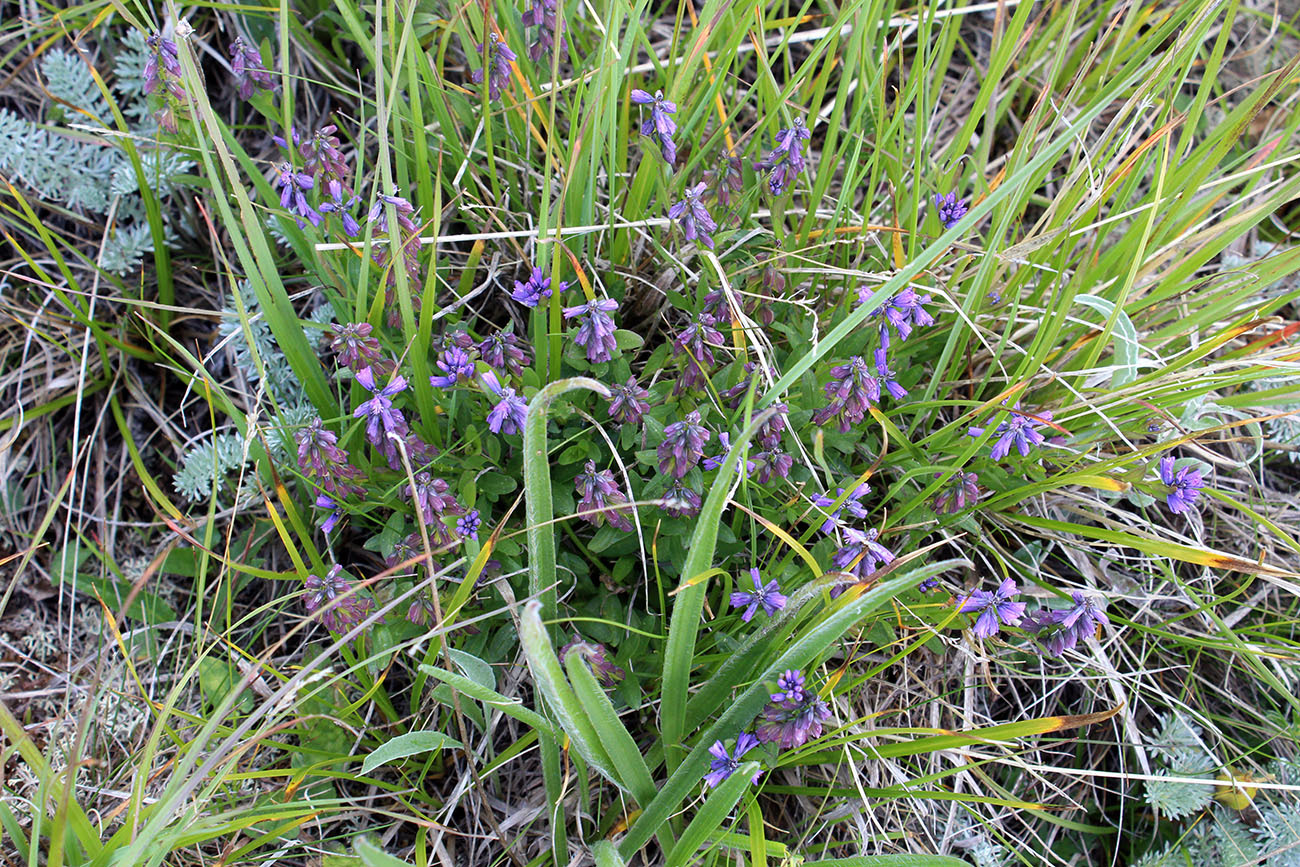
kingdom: Plantae
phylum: Tracheophyta
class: Magnoliopsida
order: Fabales
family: Polygalaceae
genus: Polygala
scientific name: Polygala alpicola
